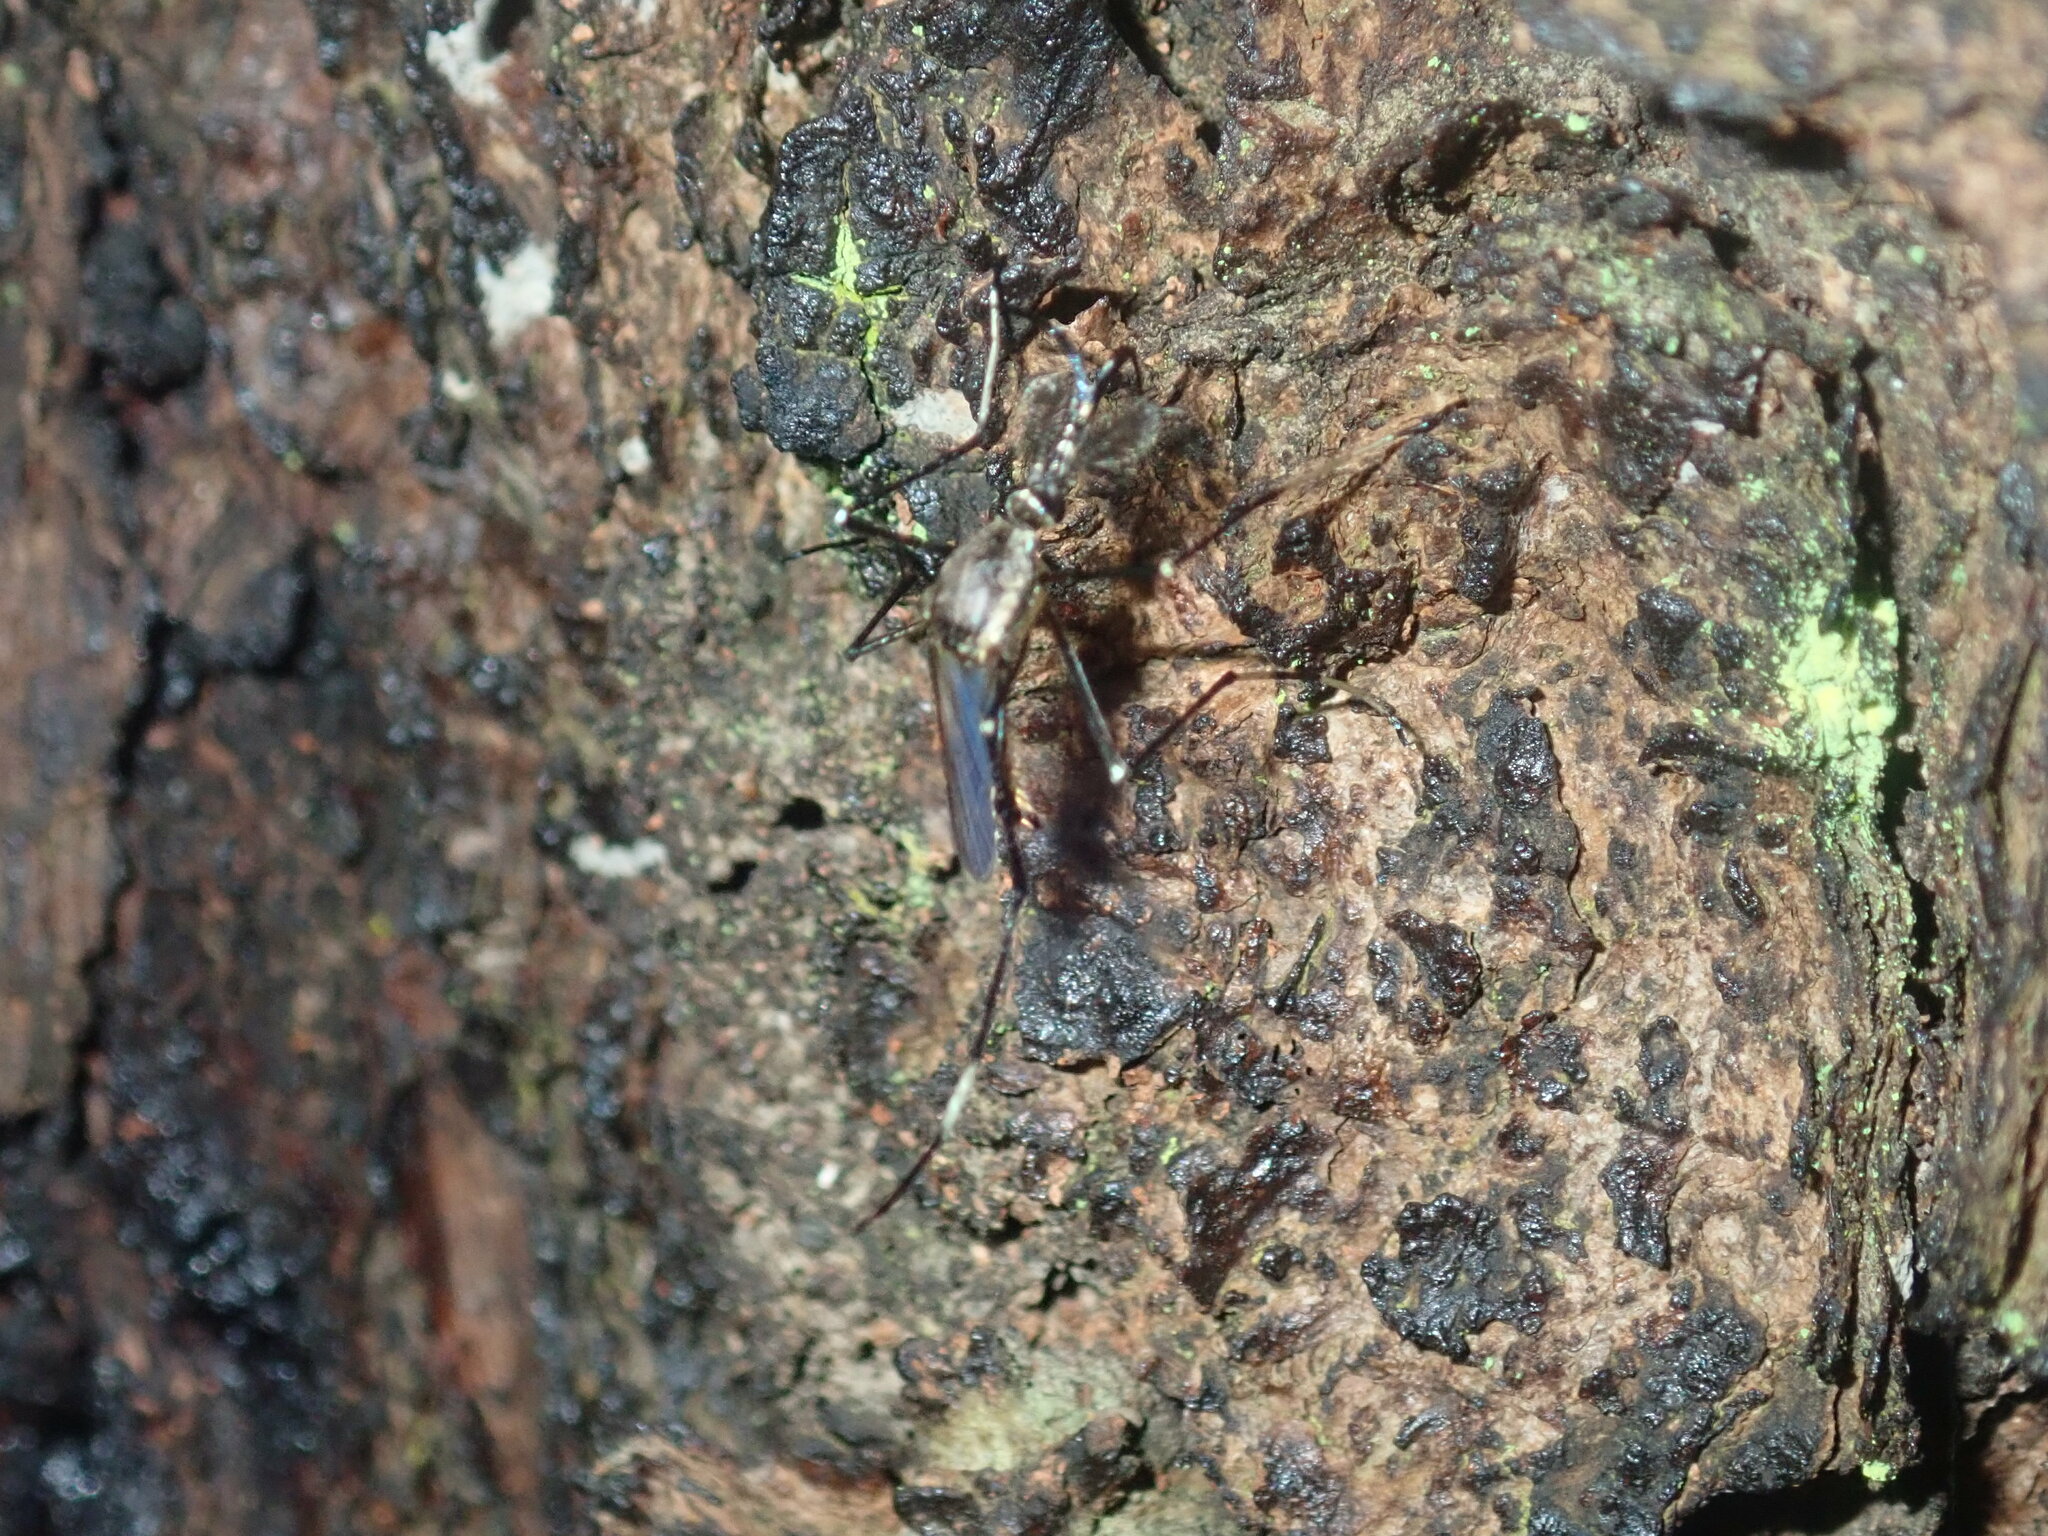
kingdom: Animalia
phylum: Arthropoda
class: Insecta
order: Diptera
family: Culicidae
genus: Toxorhynchites
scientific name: Toxorhynchites speciosus
